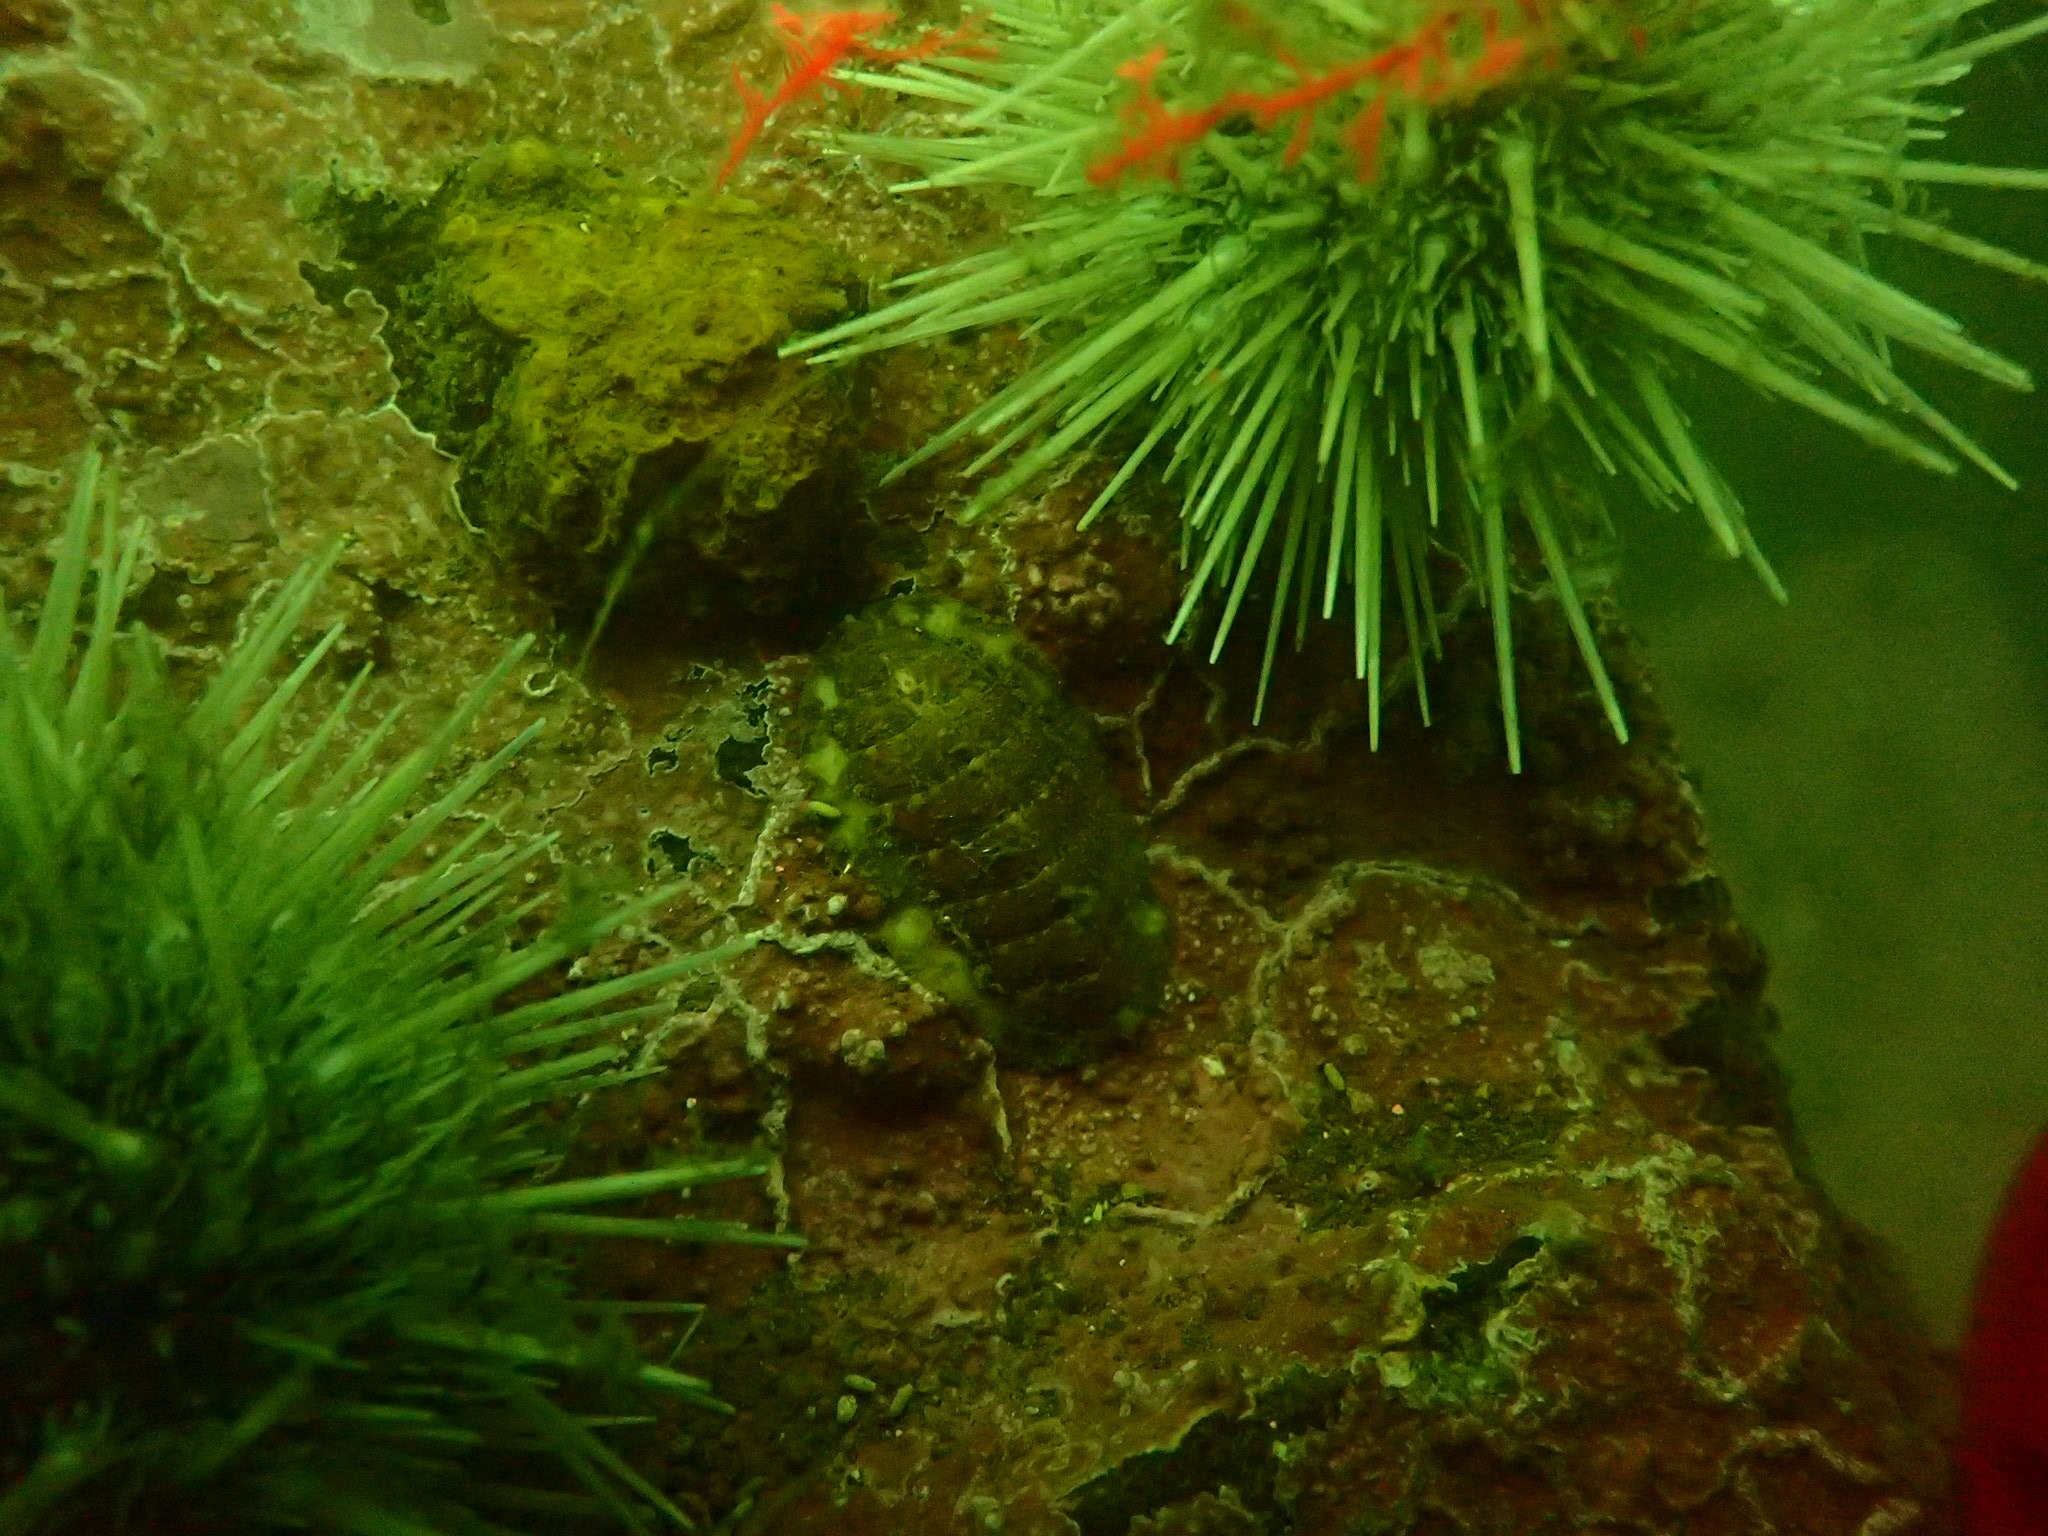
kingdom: Animalia
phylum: Echinodermata
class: Echinoidea
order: Camarodonta
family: Strongylocentrotidae
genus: Strongylocentrotus
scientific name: Strongylocentrotus droebachiensis
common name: Northern sea urchin
